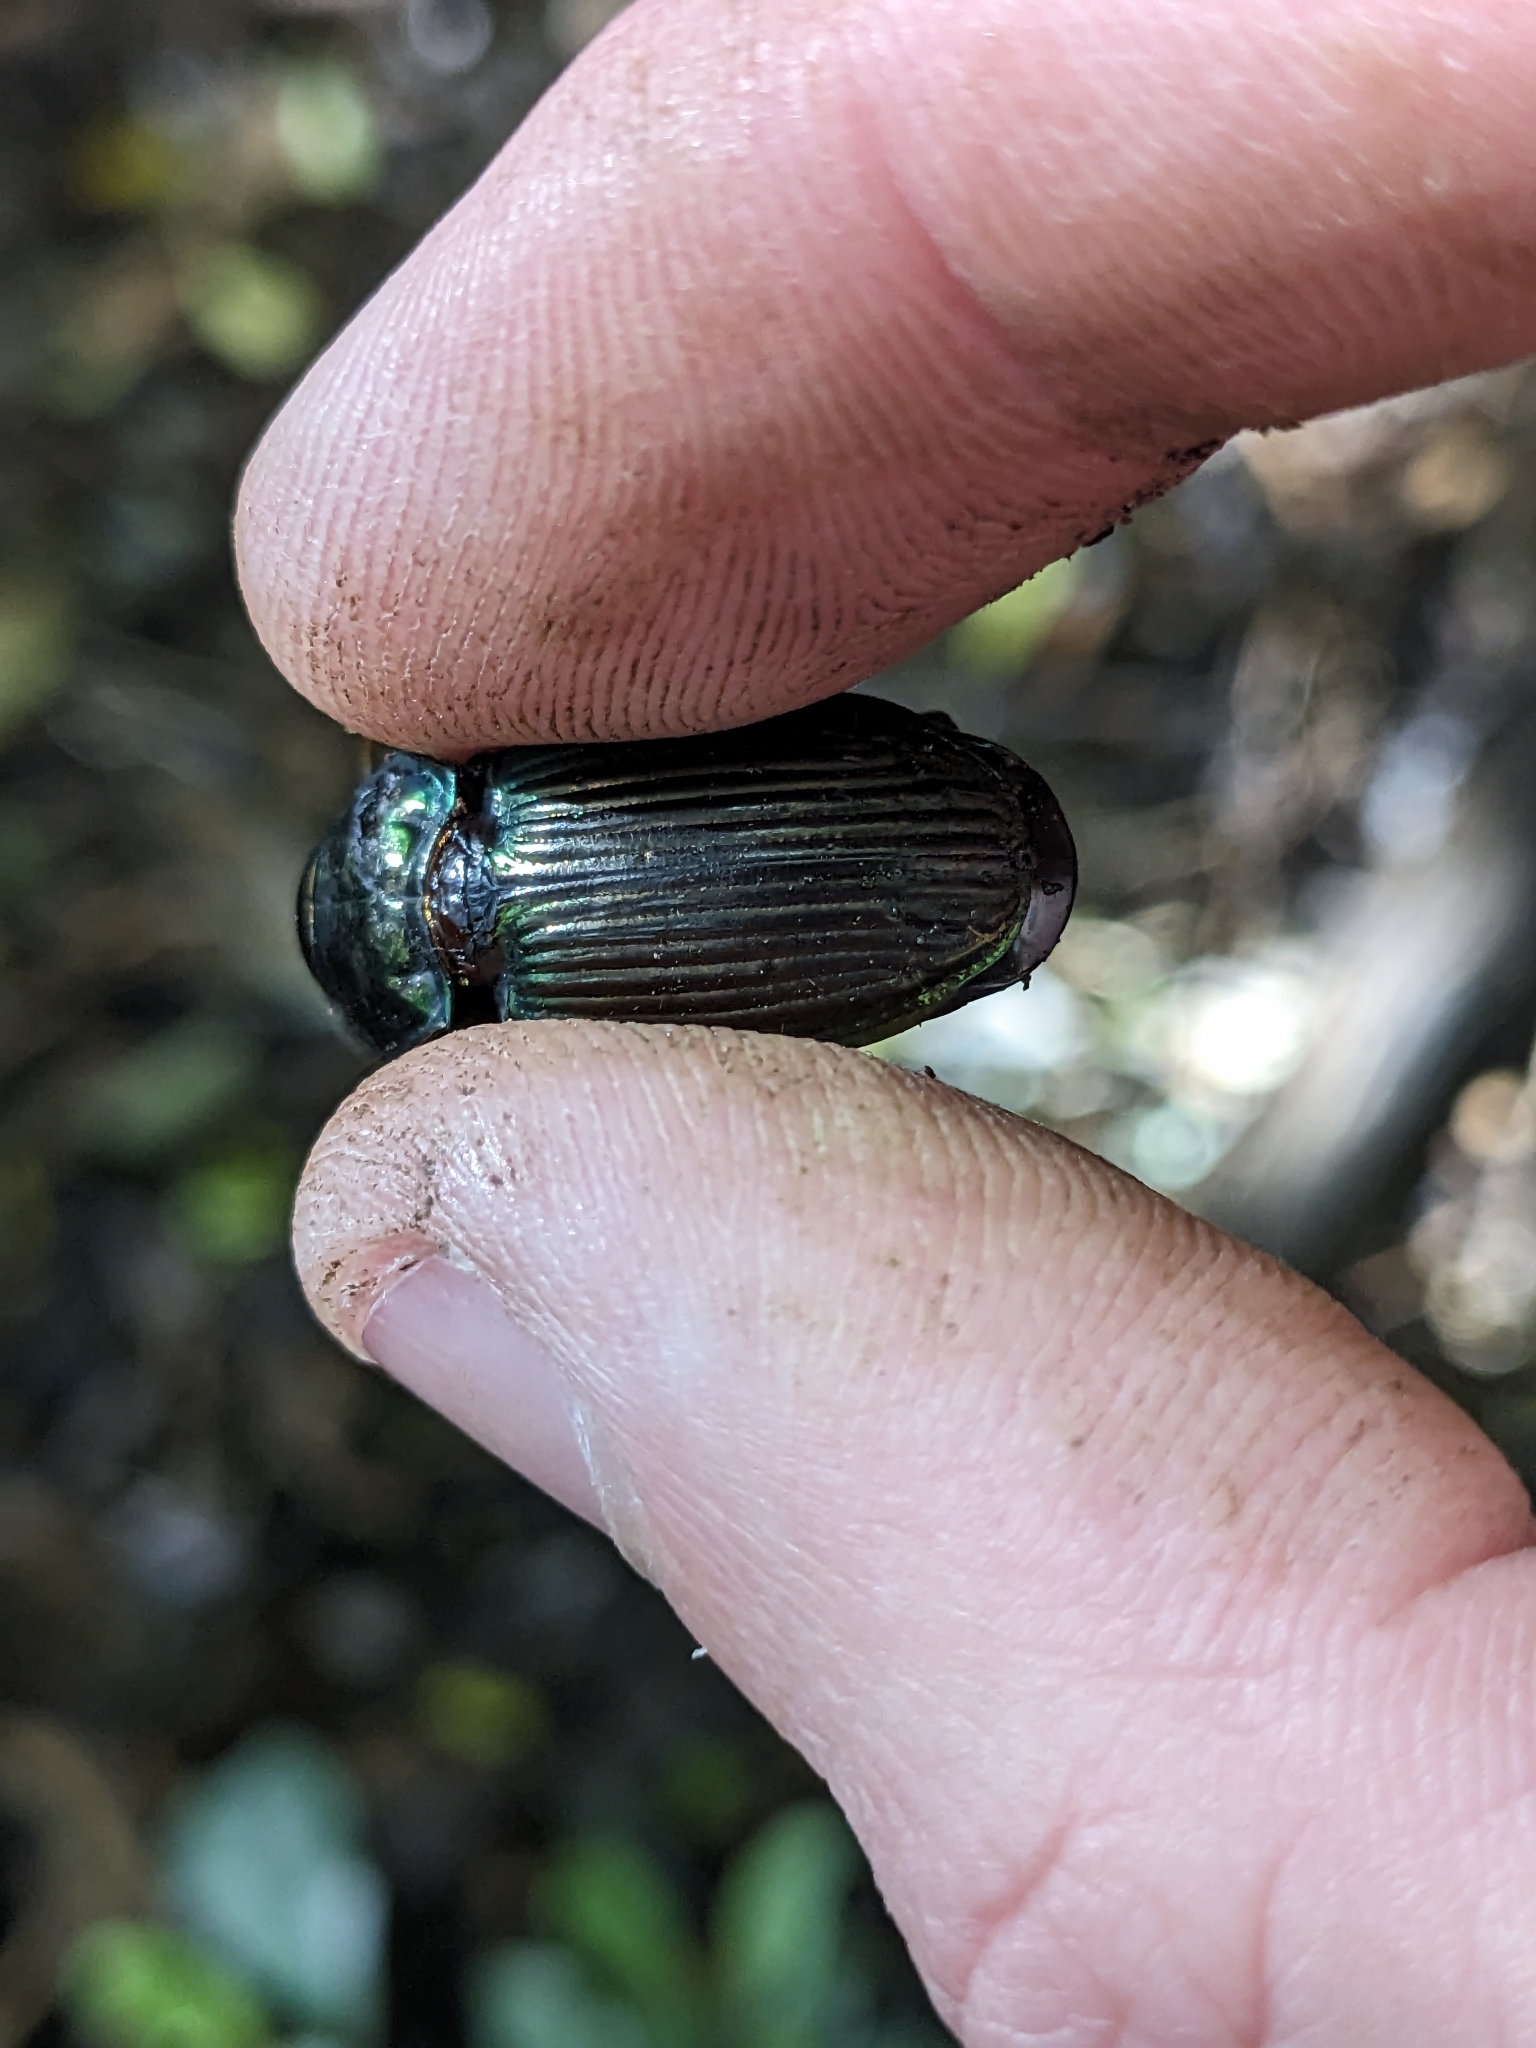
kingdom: Animalia
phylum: Arthropoda
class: Insecta
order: Coleoptera
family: Carabidae
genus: Megadromus
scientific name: Megadromus antarcticus
